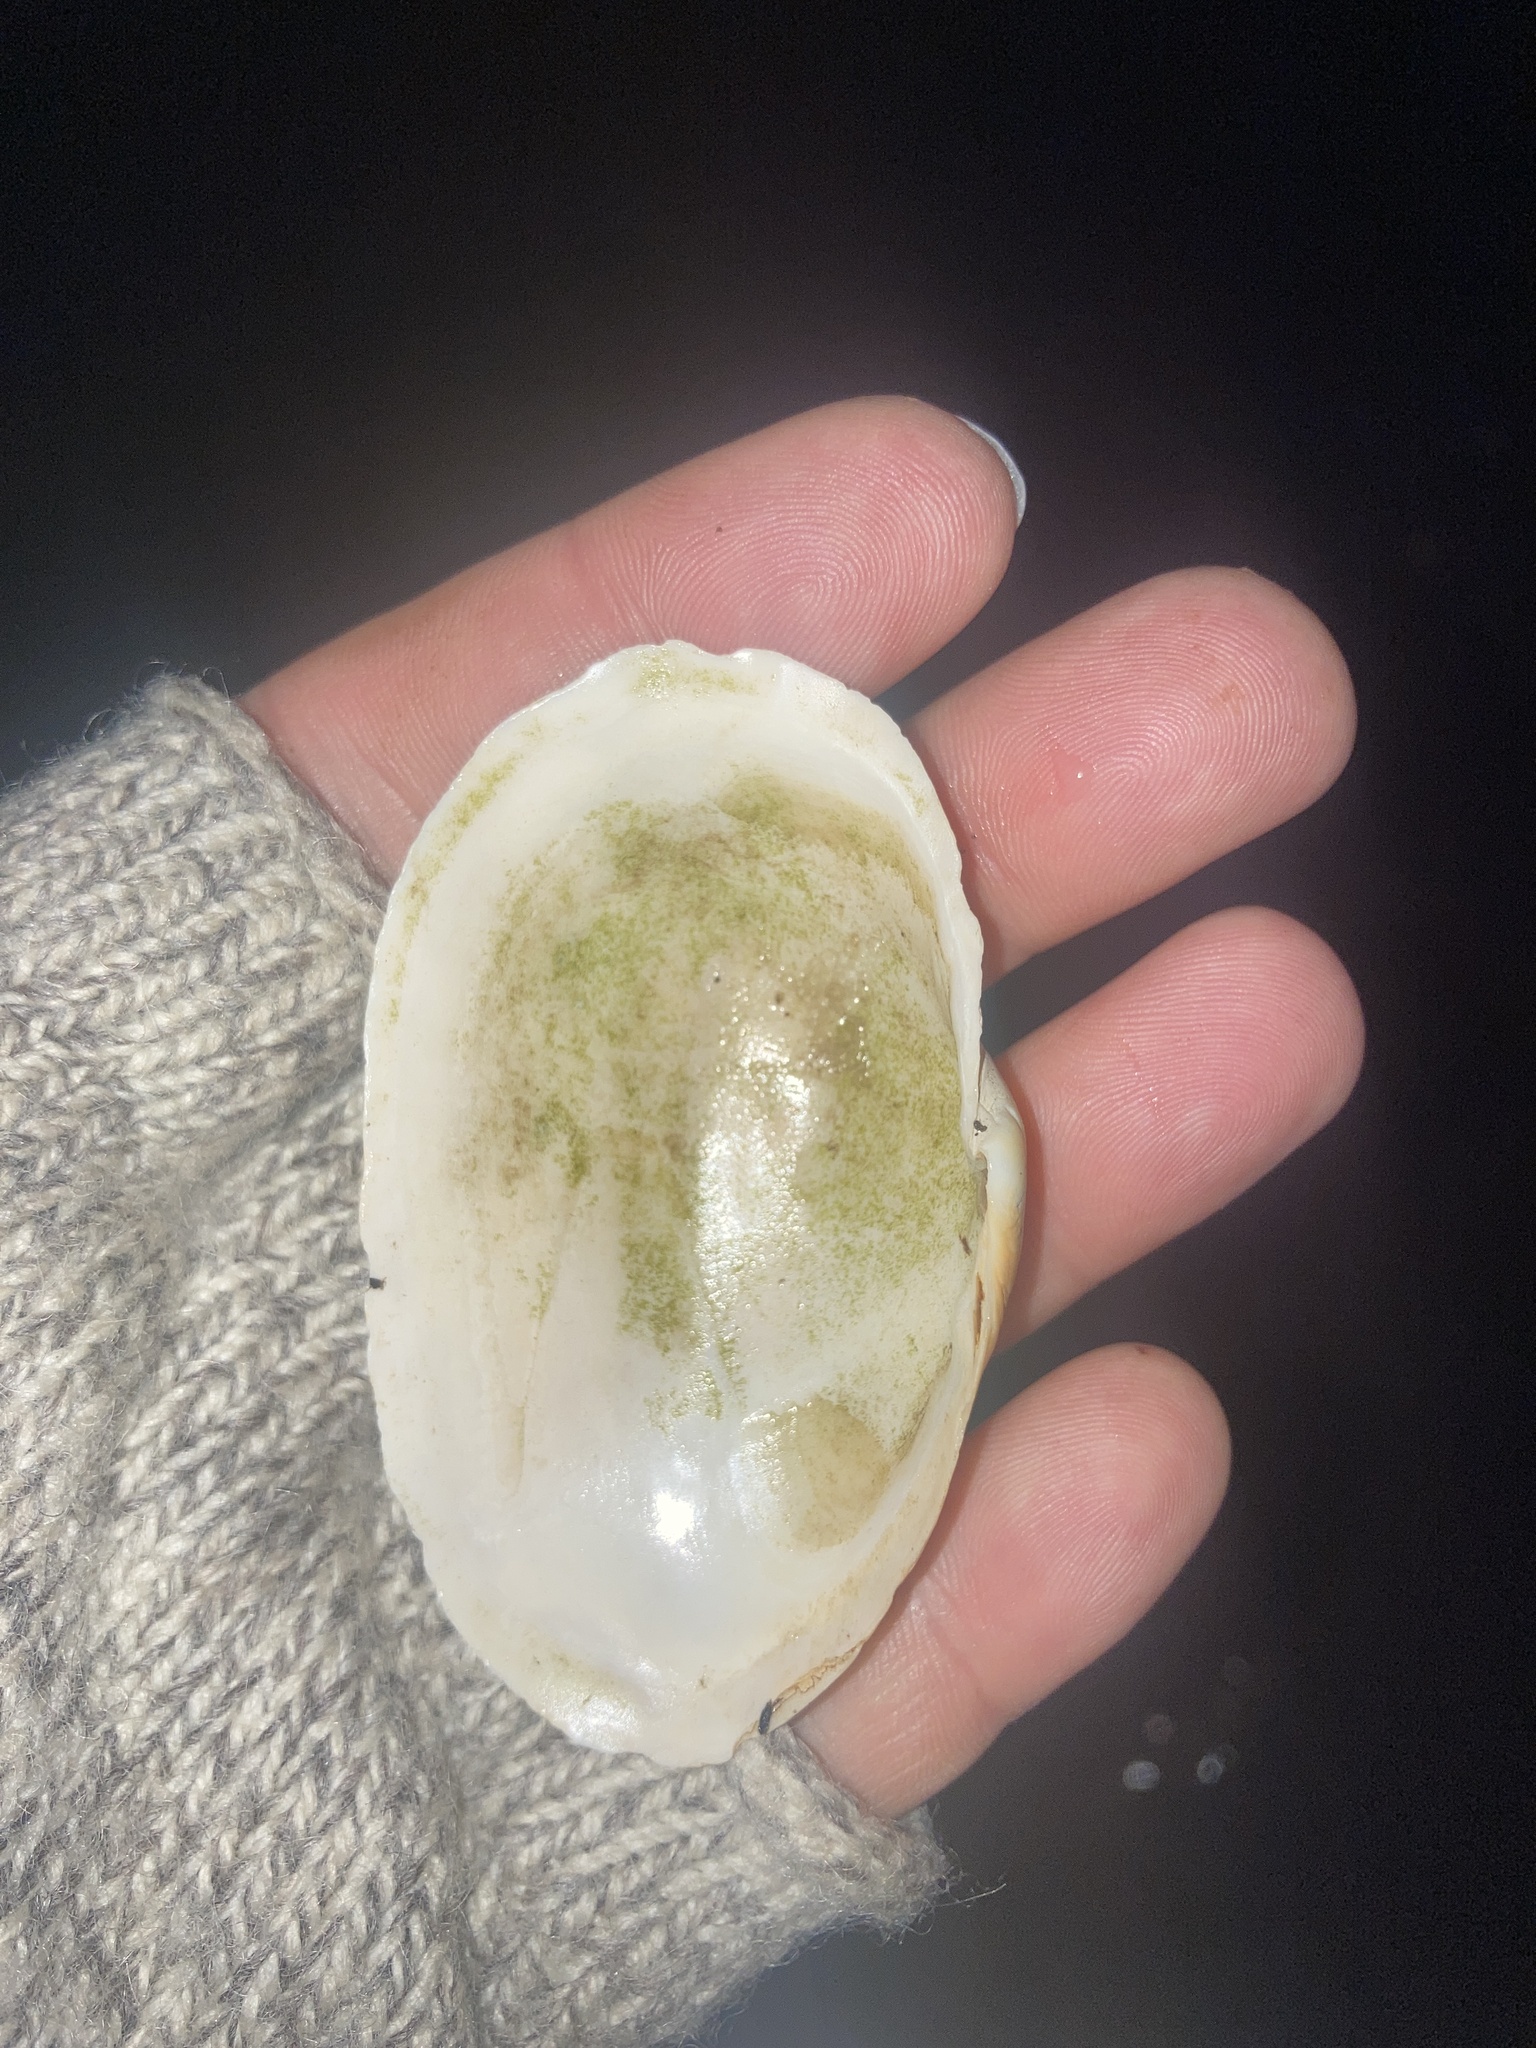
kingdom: Animalia
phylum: Mollusca
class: Bivalvia
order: Myida
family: Myidae
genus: Mya
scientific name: Mya arenaria
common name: Soft-shelled clam
